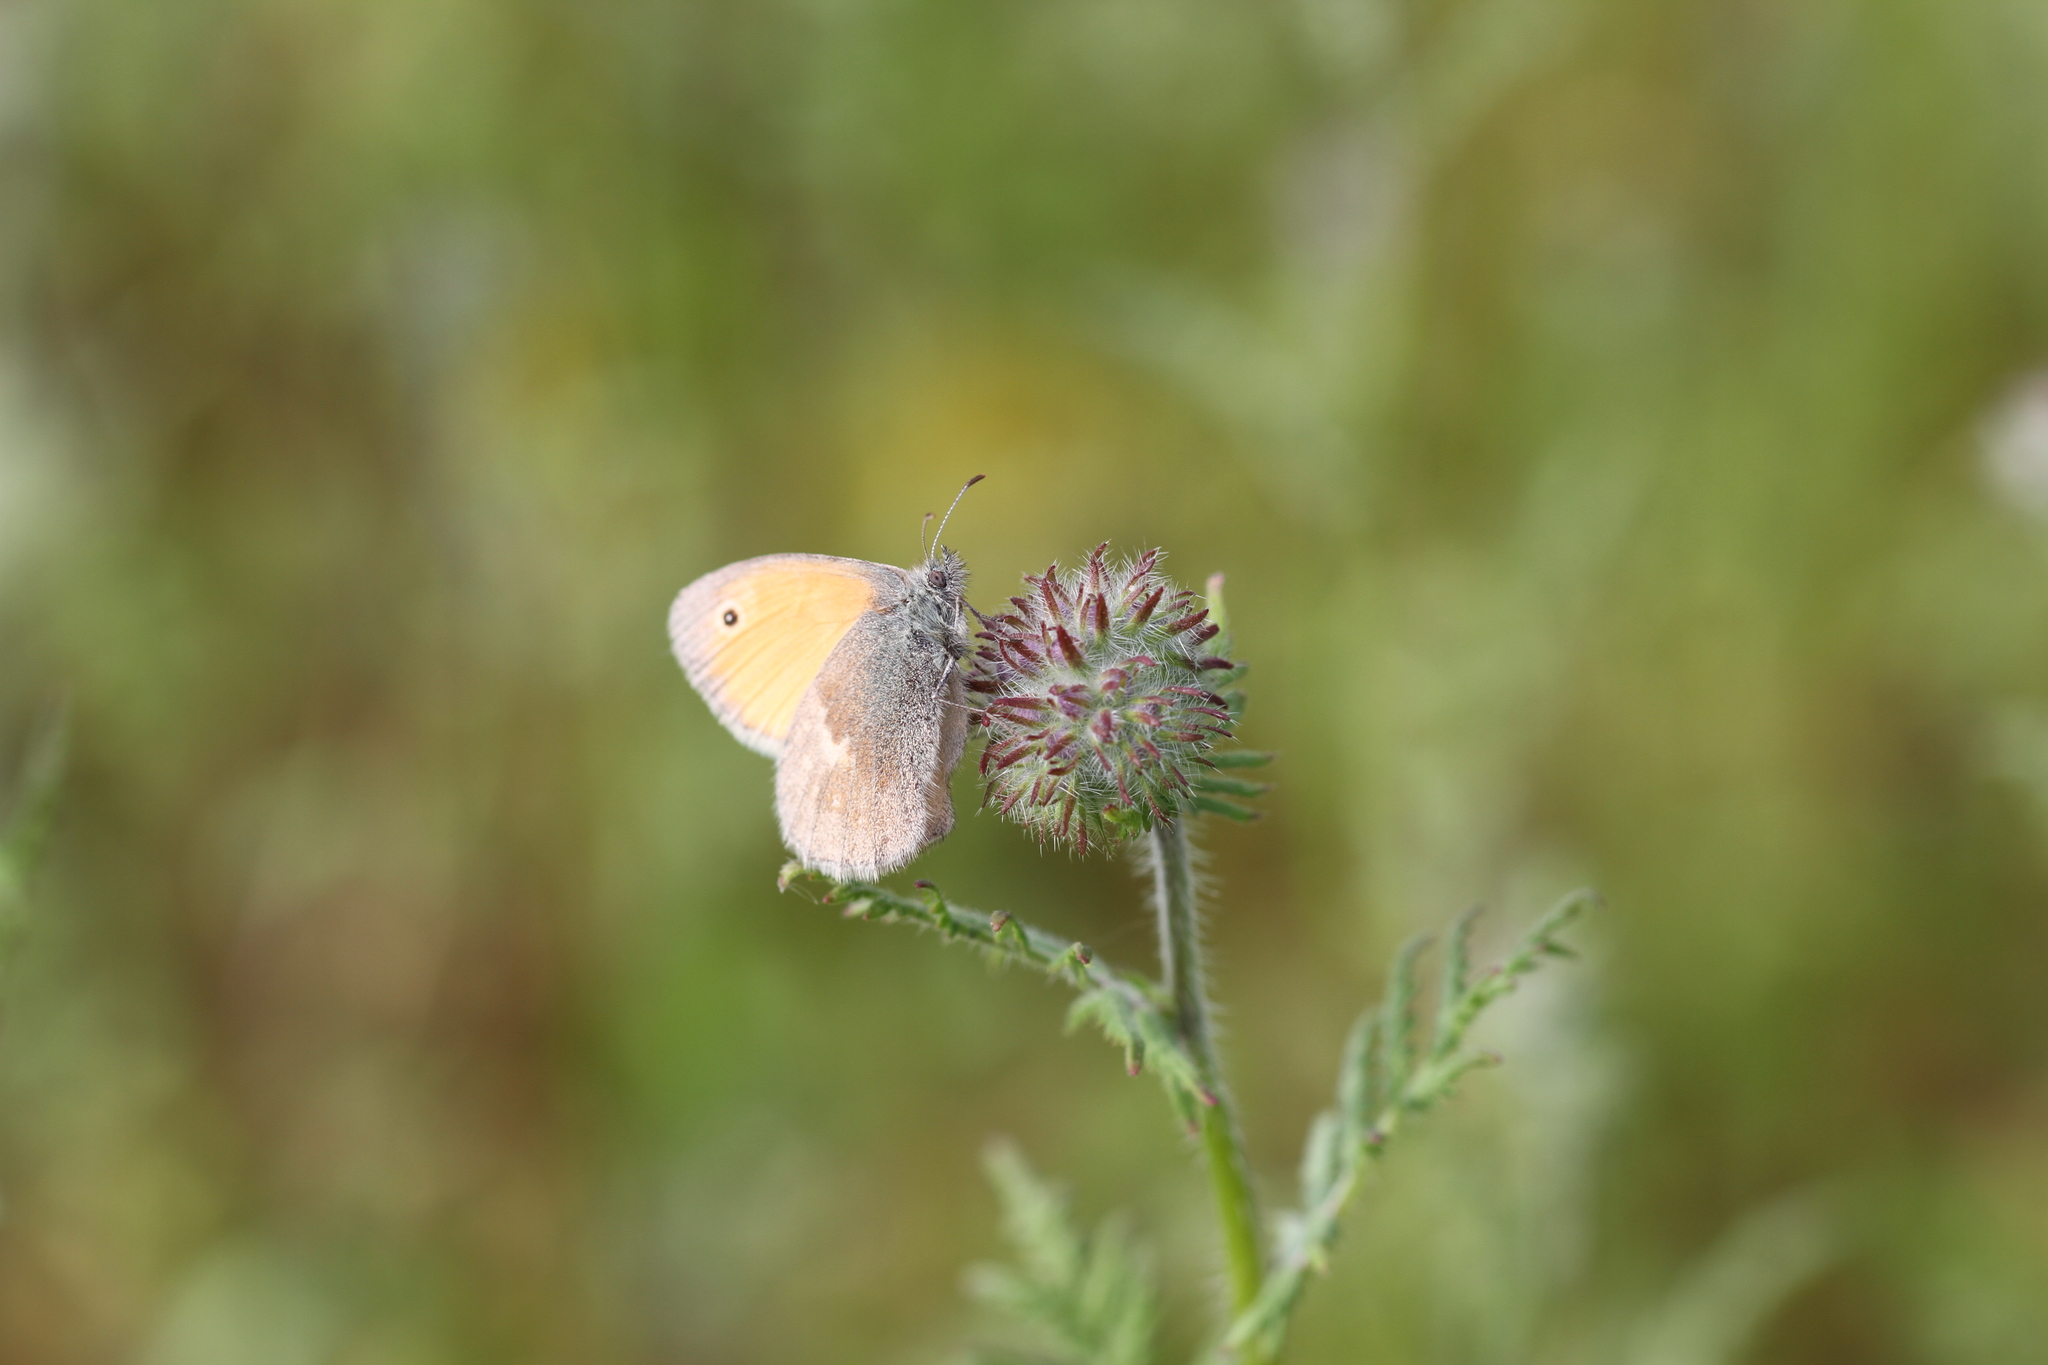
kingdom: Animalia
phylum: Arthropoda
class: Insecta
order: Lepidoptera
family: Nymphalidae
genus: Coenonympha
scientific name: Coenonympha pamphilus
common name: Small heath
